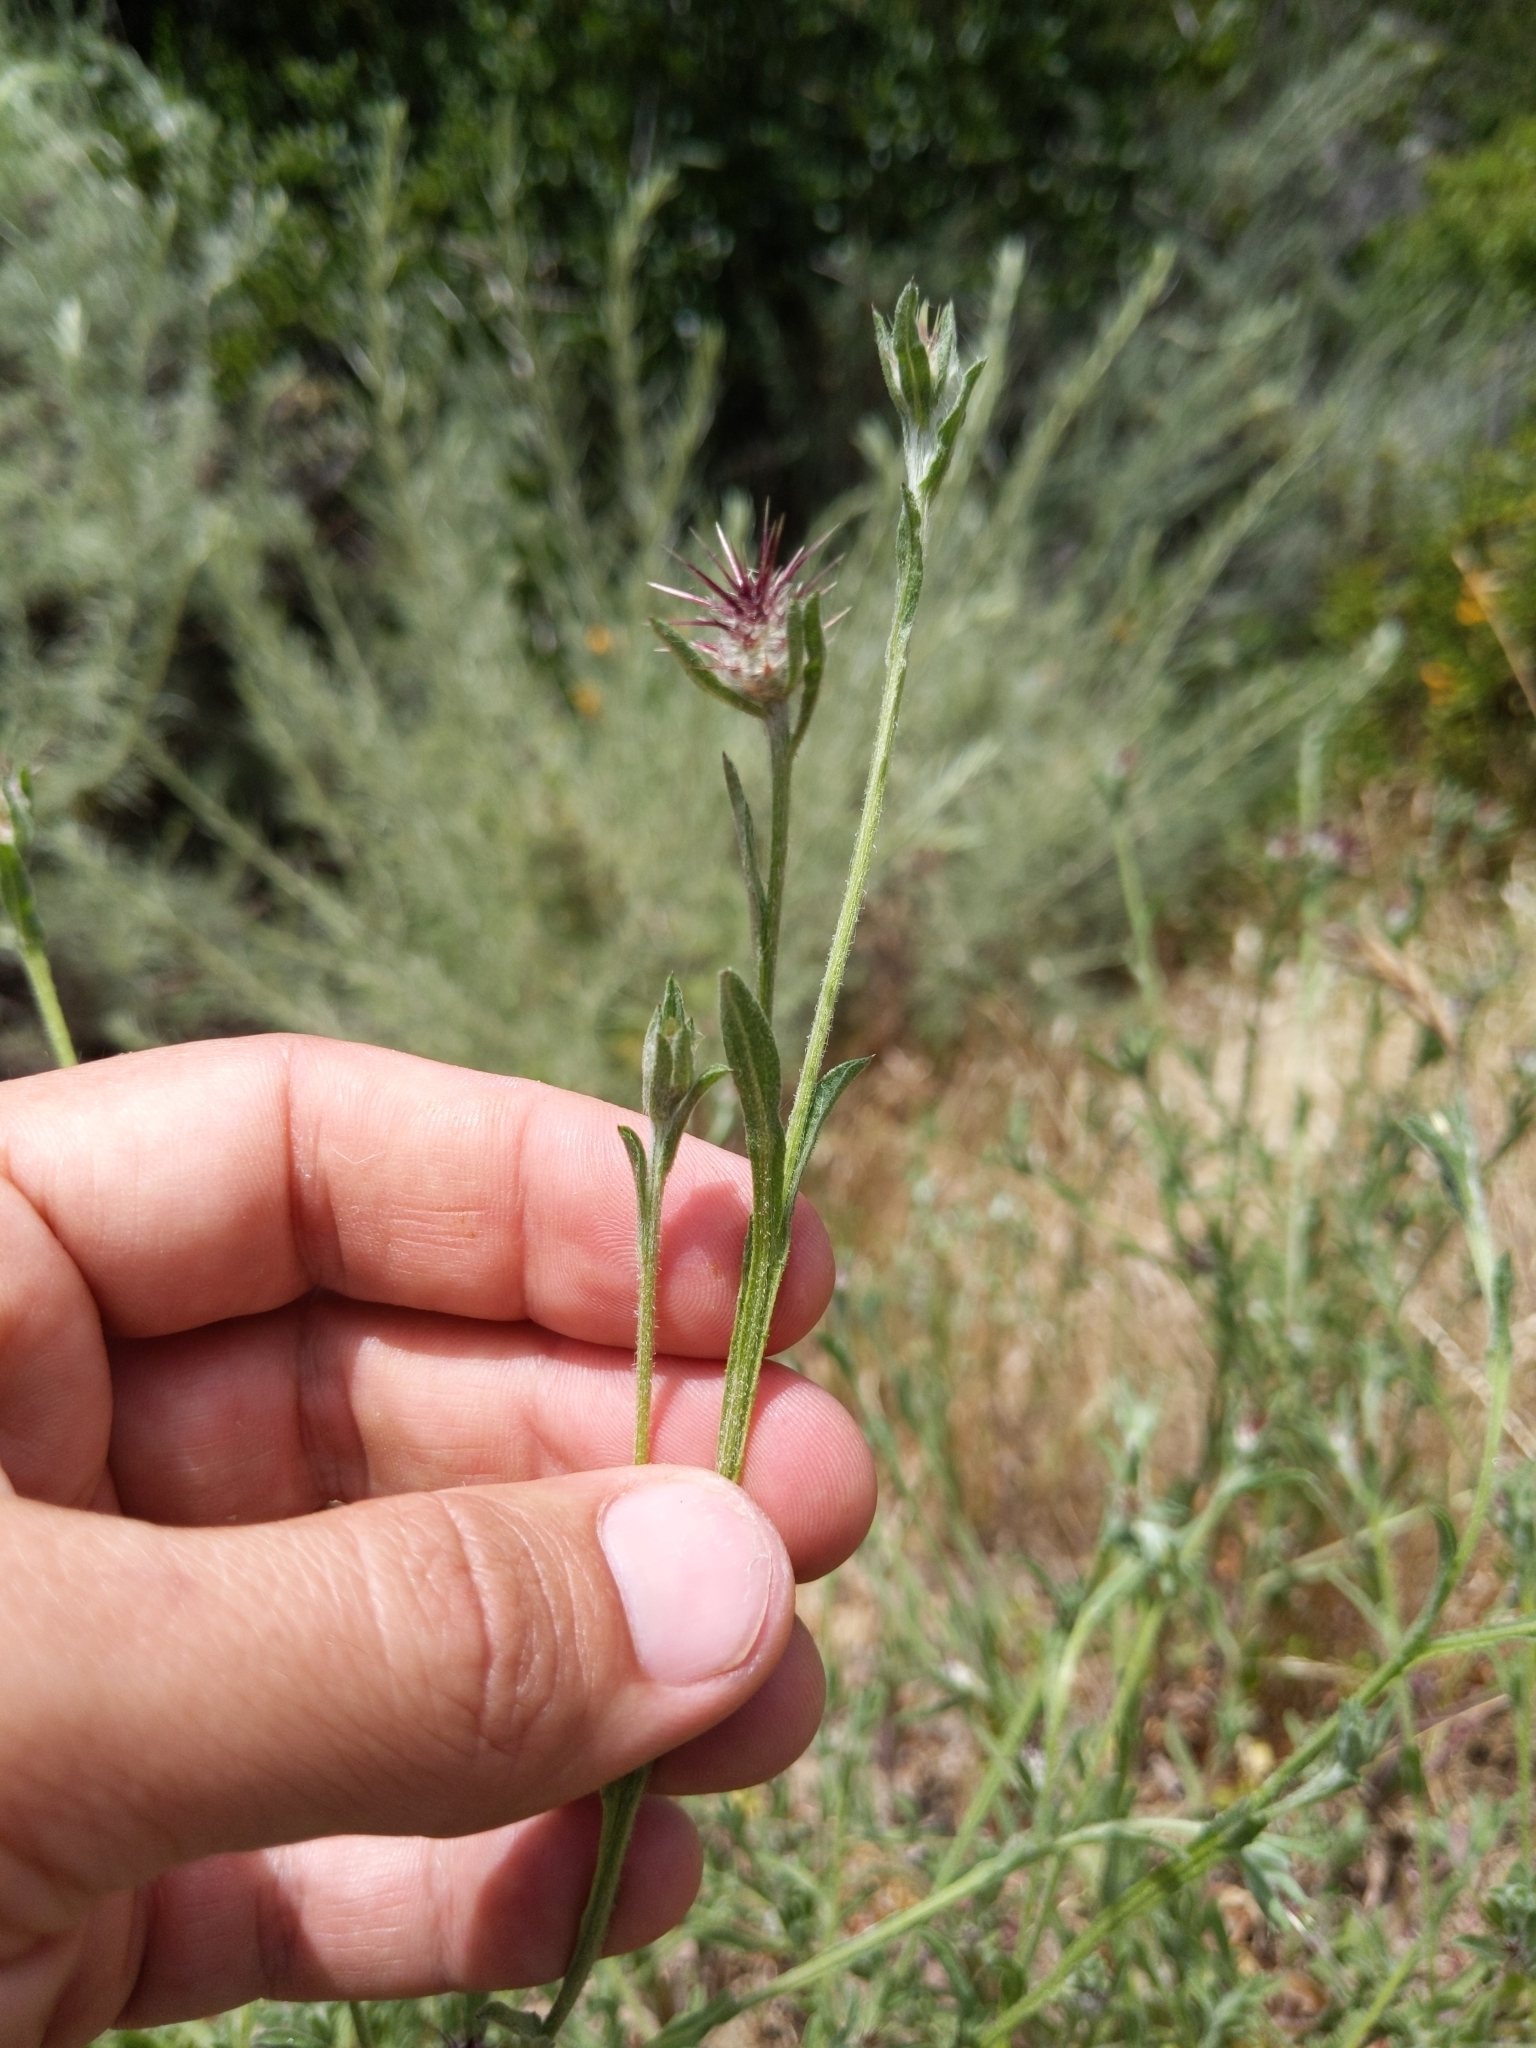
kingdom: Plantae
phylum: Tracheophyta
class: Magnoliopsida
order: Asterales
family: Asteraceae
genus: Centaurea
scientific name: Centaurea melitensis
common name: Maltese star-thistle
